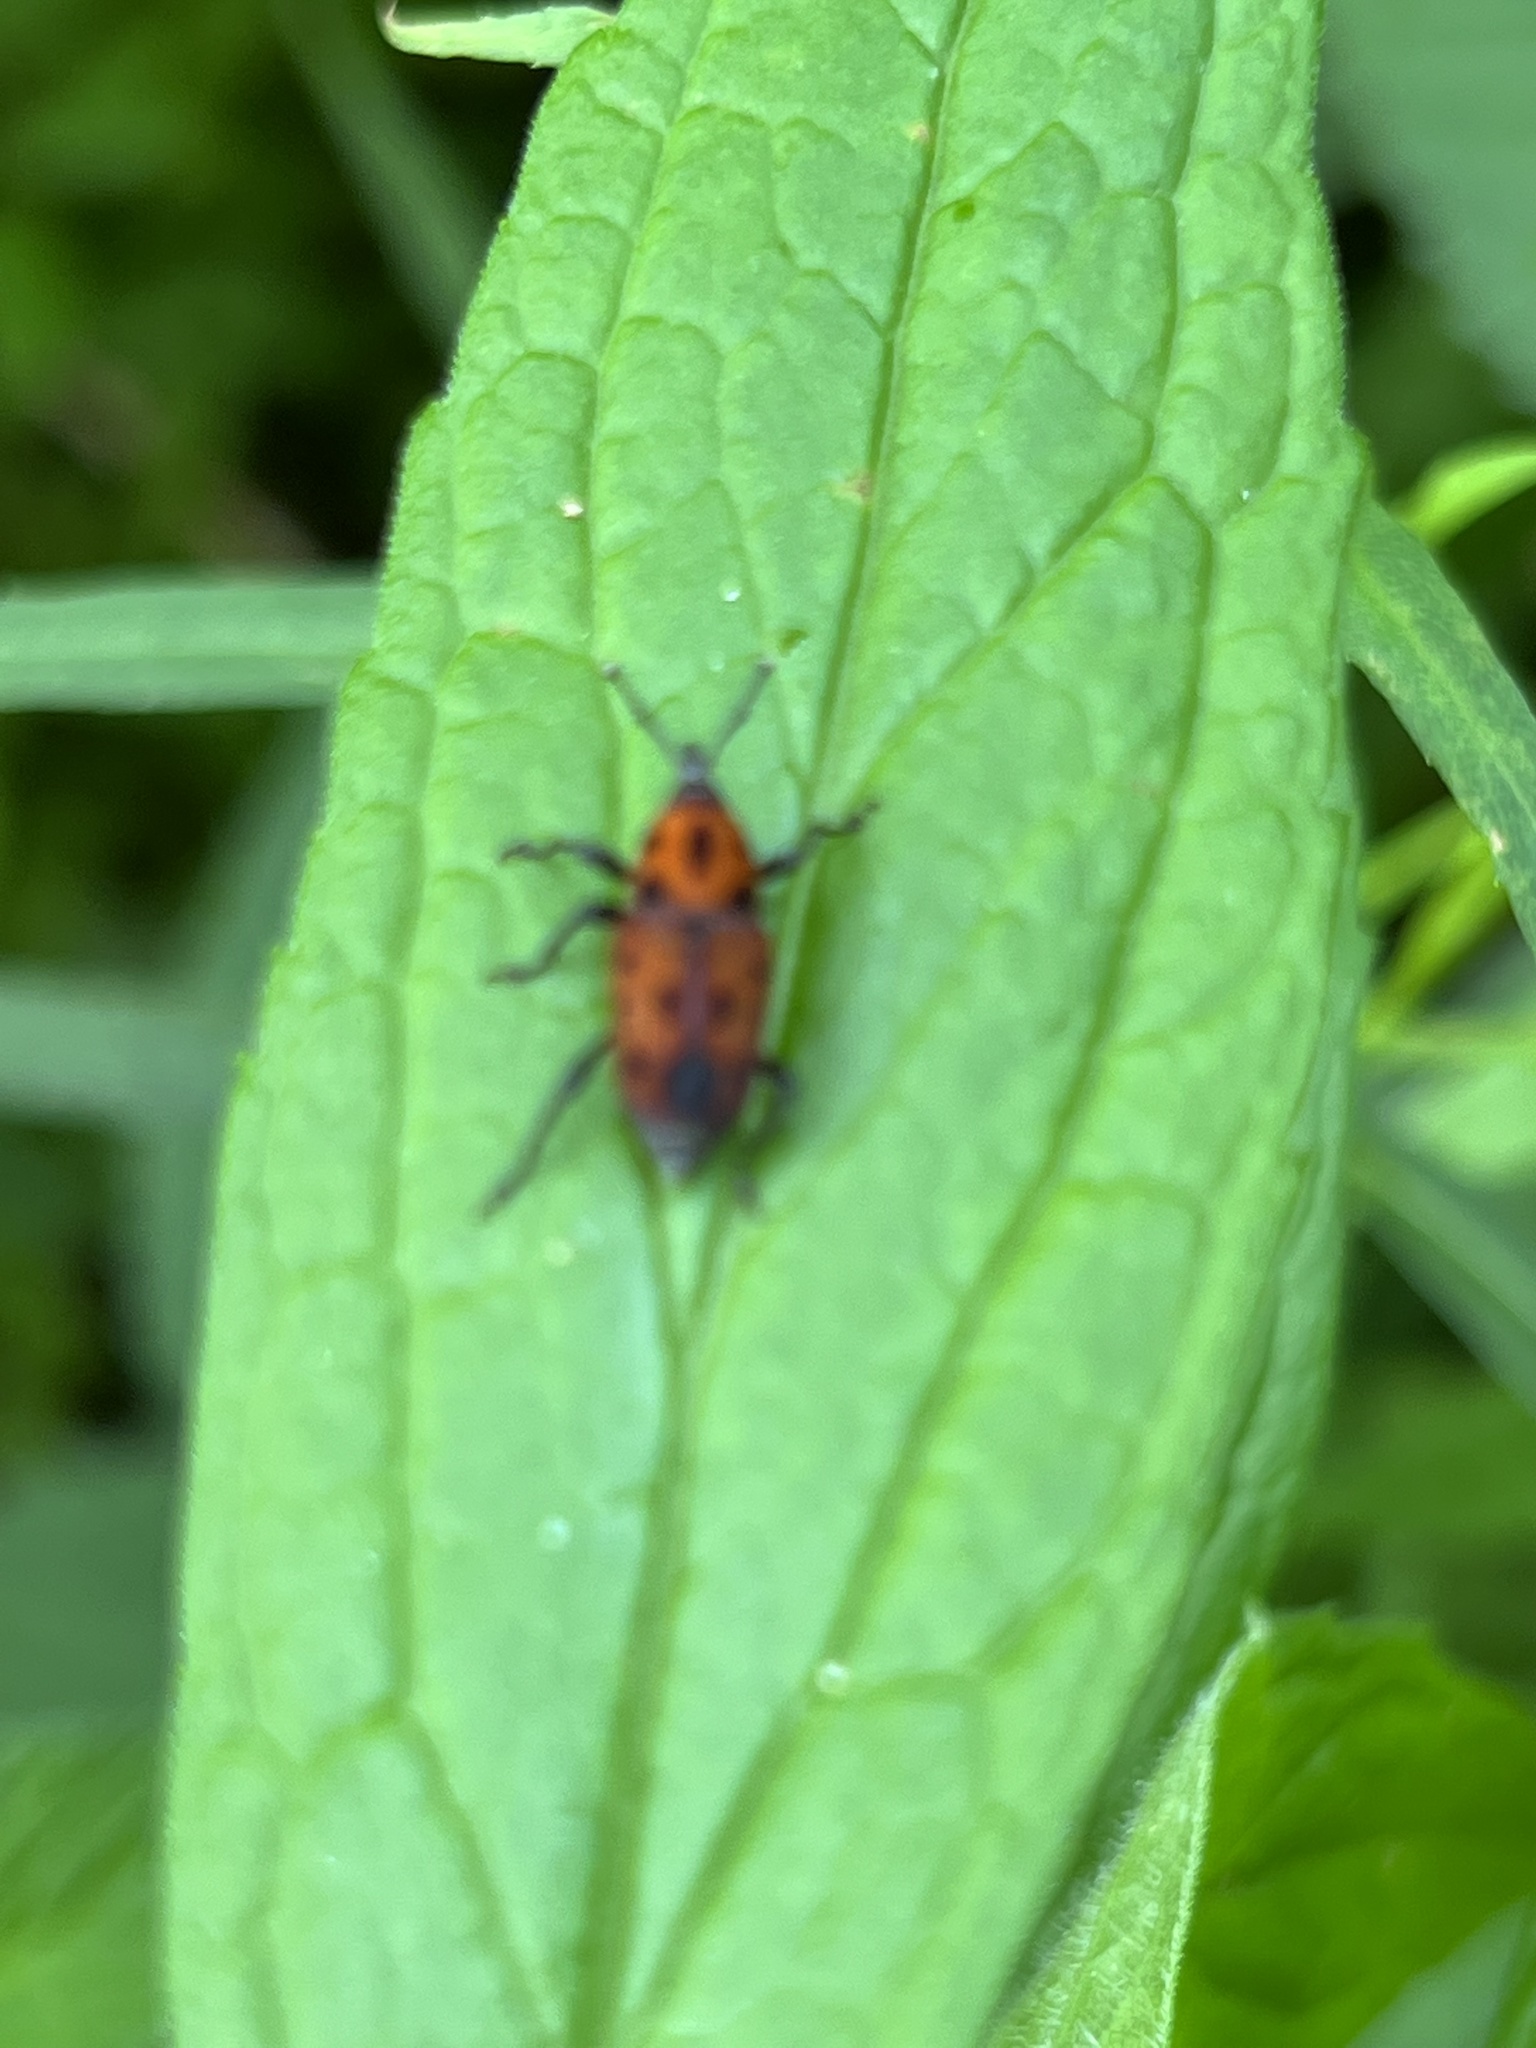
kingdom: Animalia
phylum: Arthropoda
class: Insecta
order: Coleoptera
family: Dryophthoridae
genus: Rhodobaenus
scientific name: Rhodobaenus quinquepunctatus
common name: Cocklebur weevil
